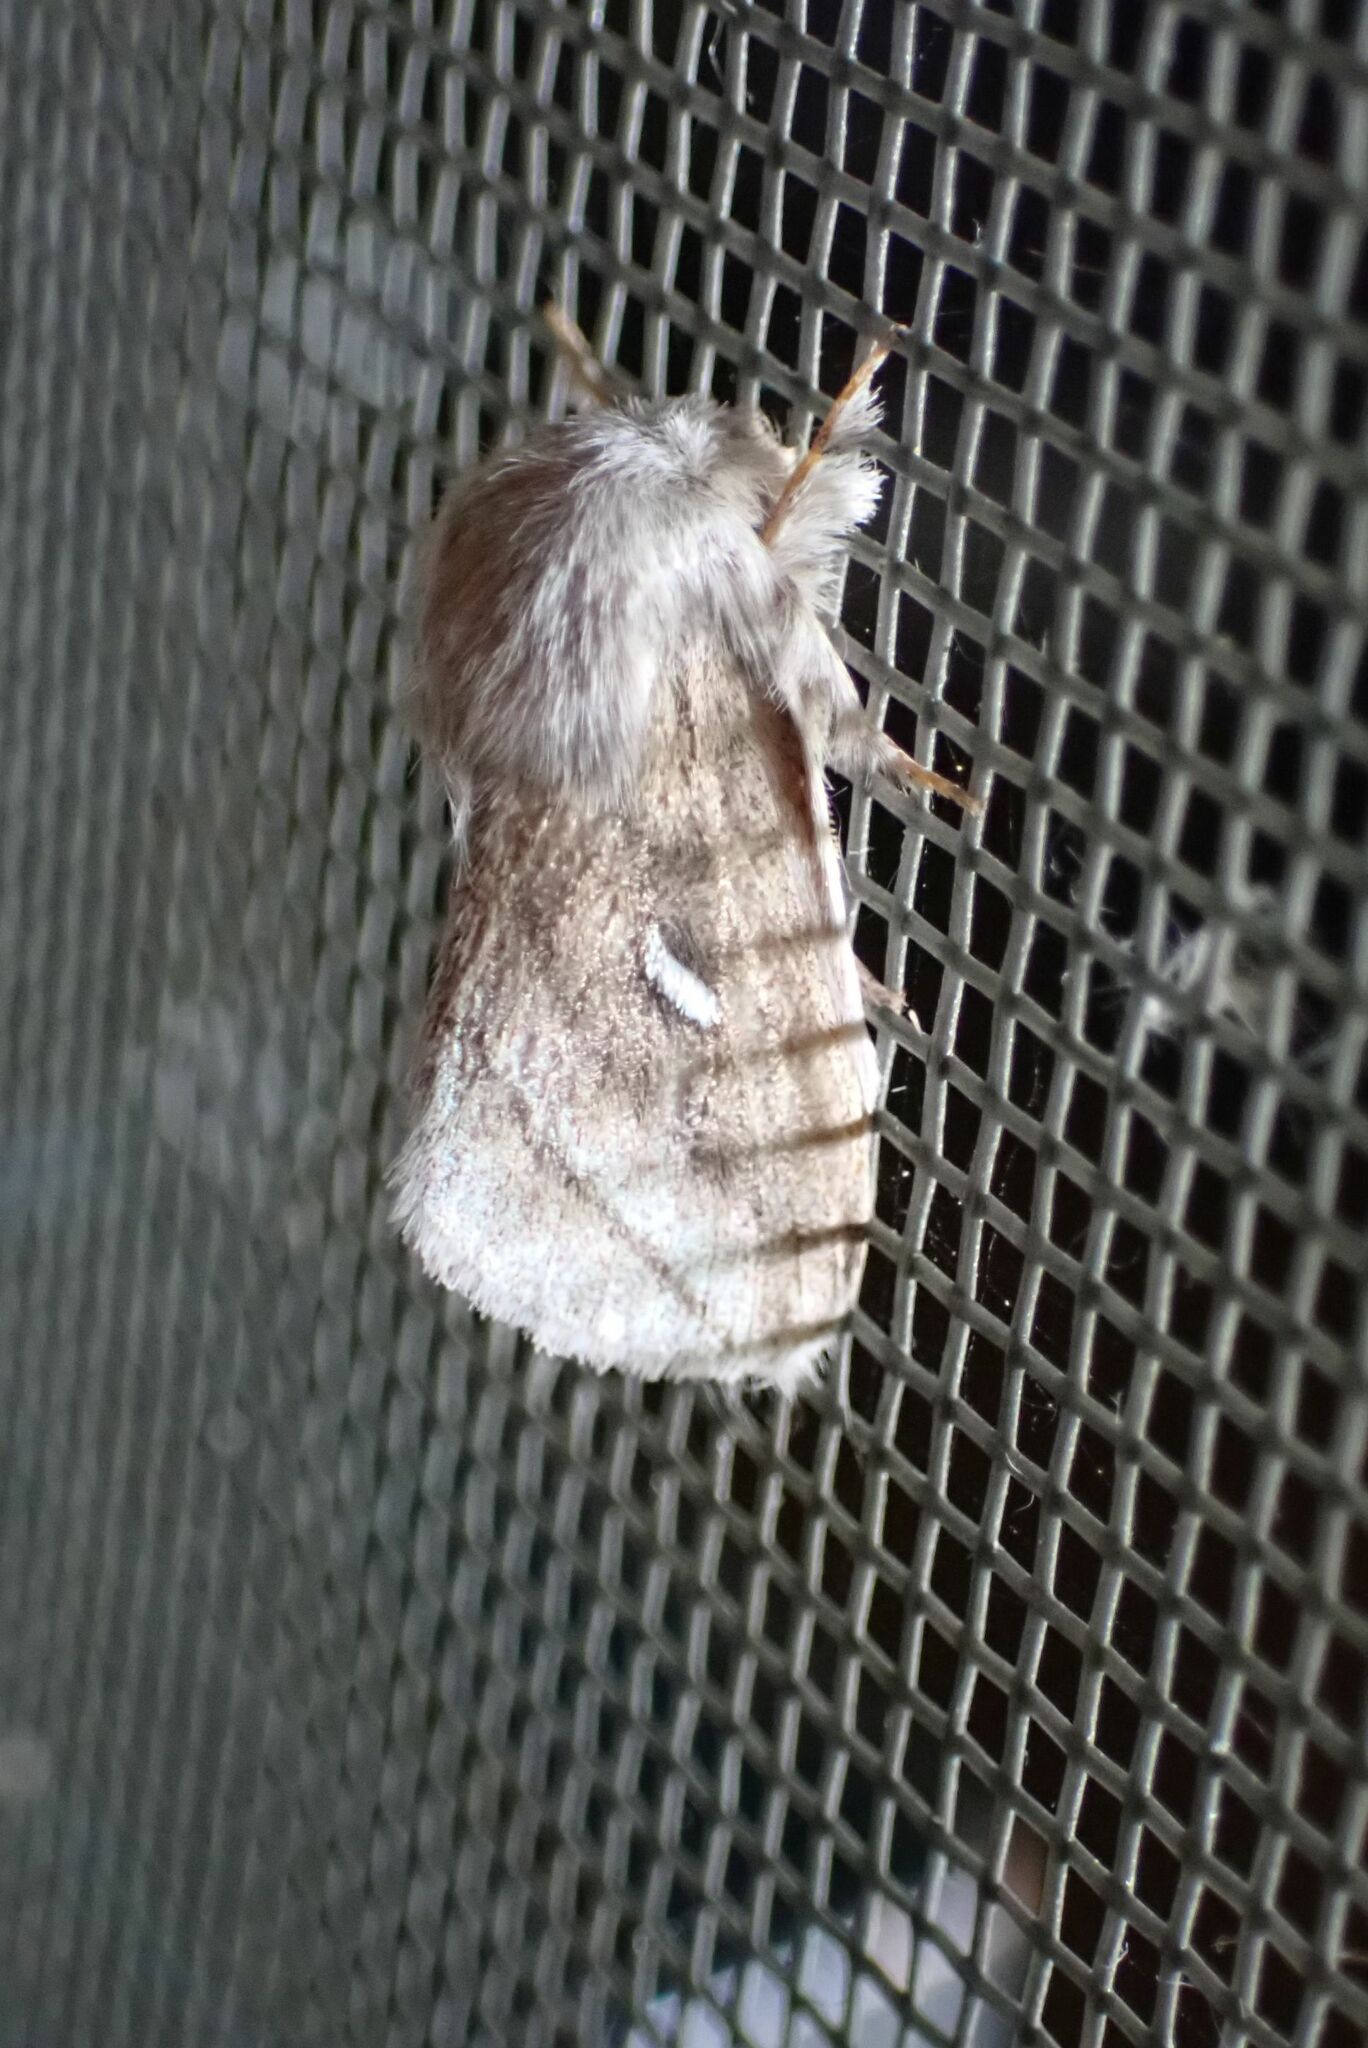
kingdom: Animalia
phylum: Arthropoda
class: Insecta
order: Lepidoptera
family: Lasiocampidae
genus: Sena
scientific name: Sena prompta
